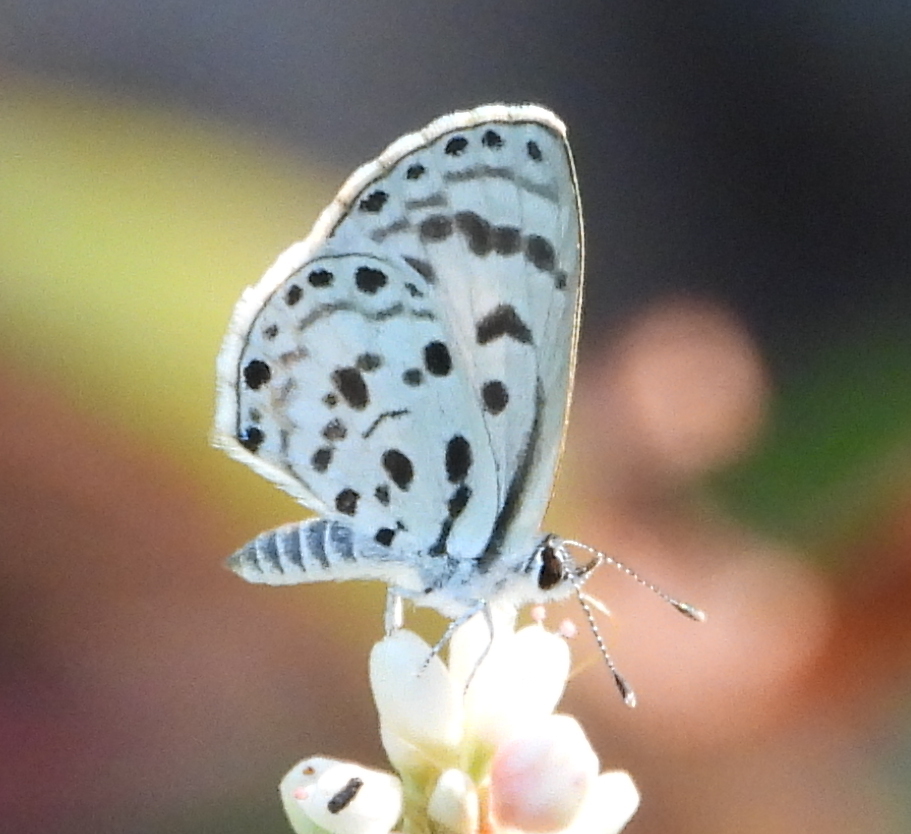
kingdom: Animalia
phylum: Arthropoda
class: Insecta
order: Lepidoptera
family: Lycaenidae
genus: Azanus
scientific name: Azanus mirza
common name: Mirza babul blue
